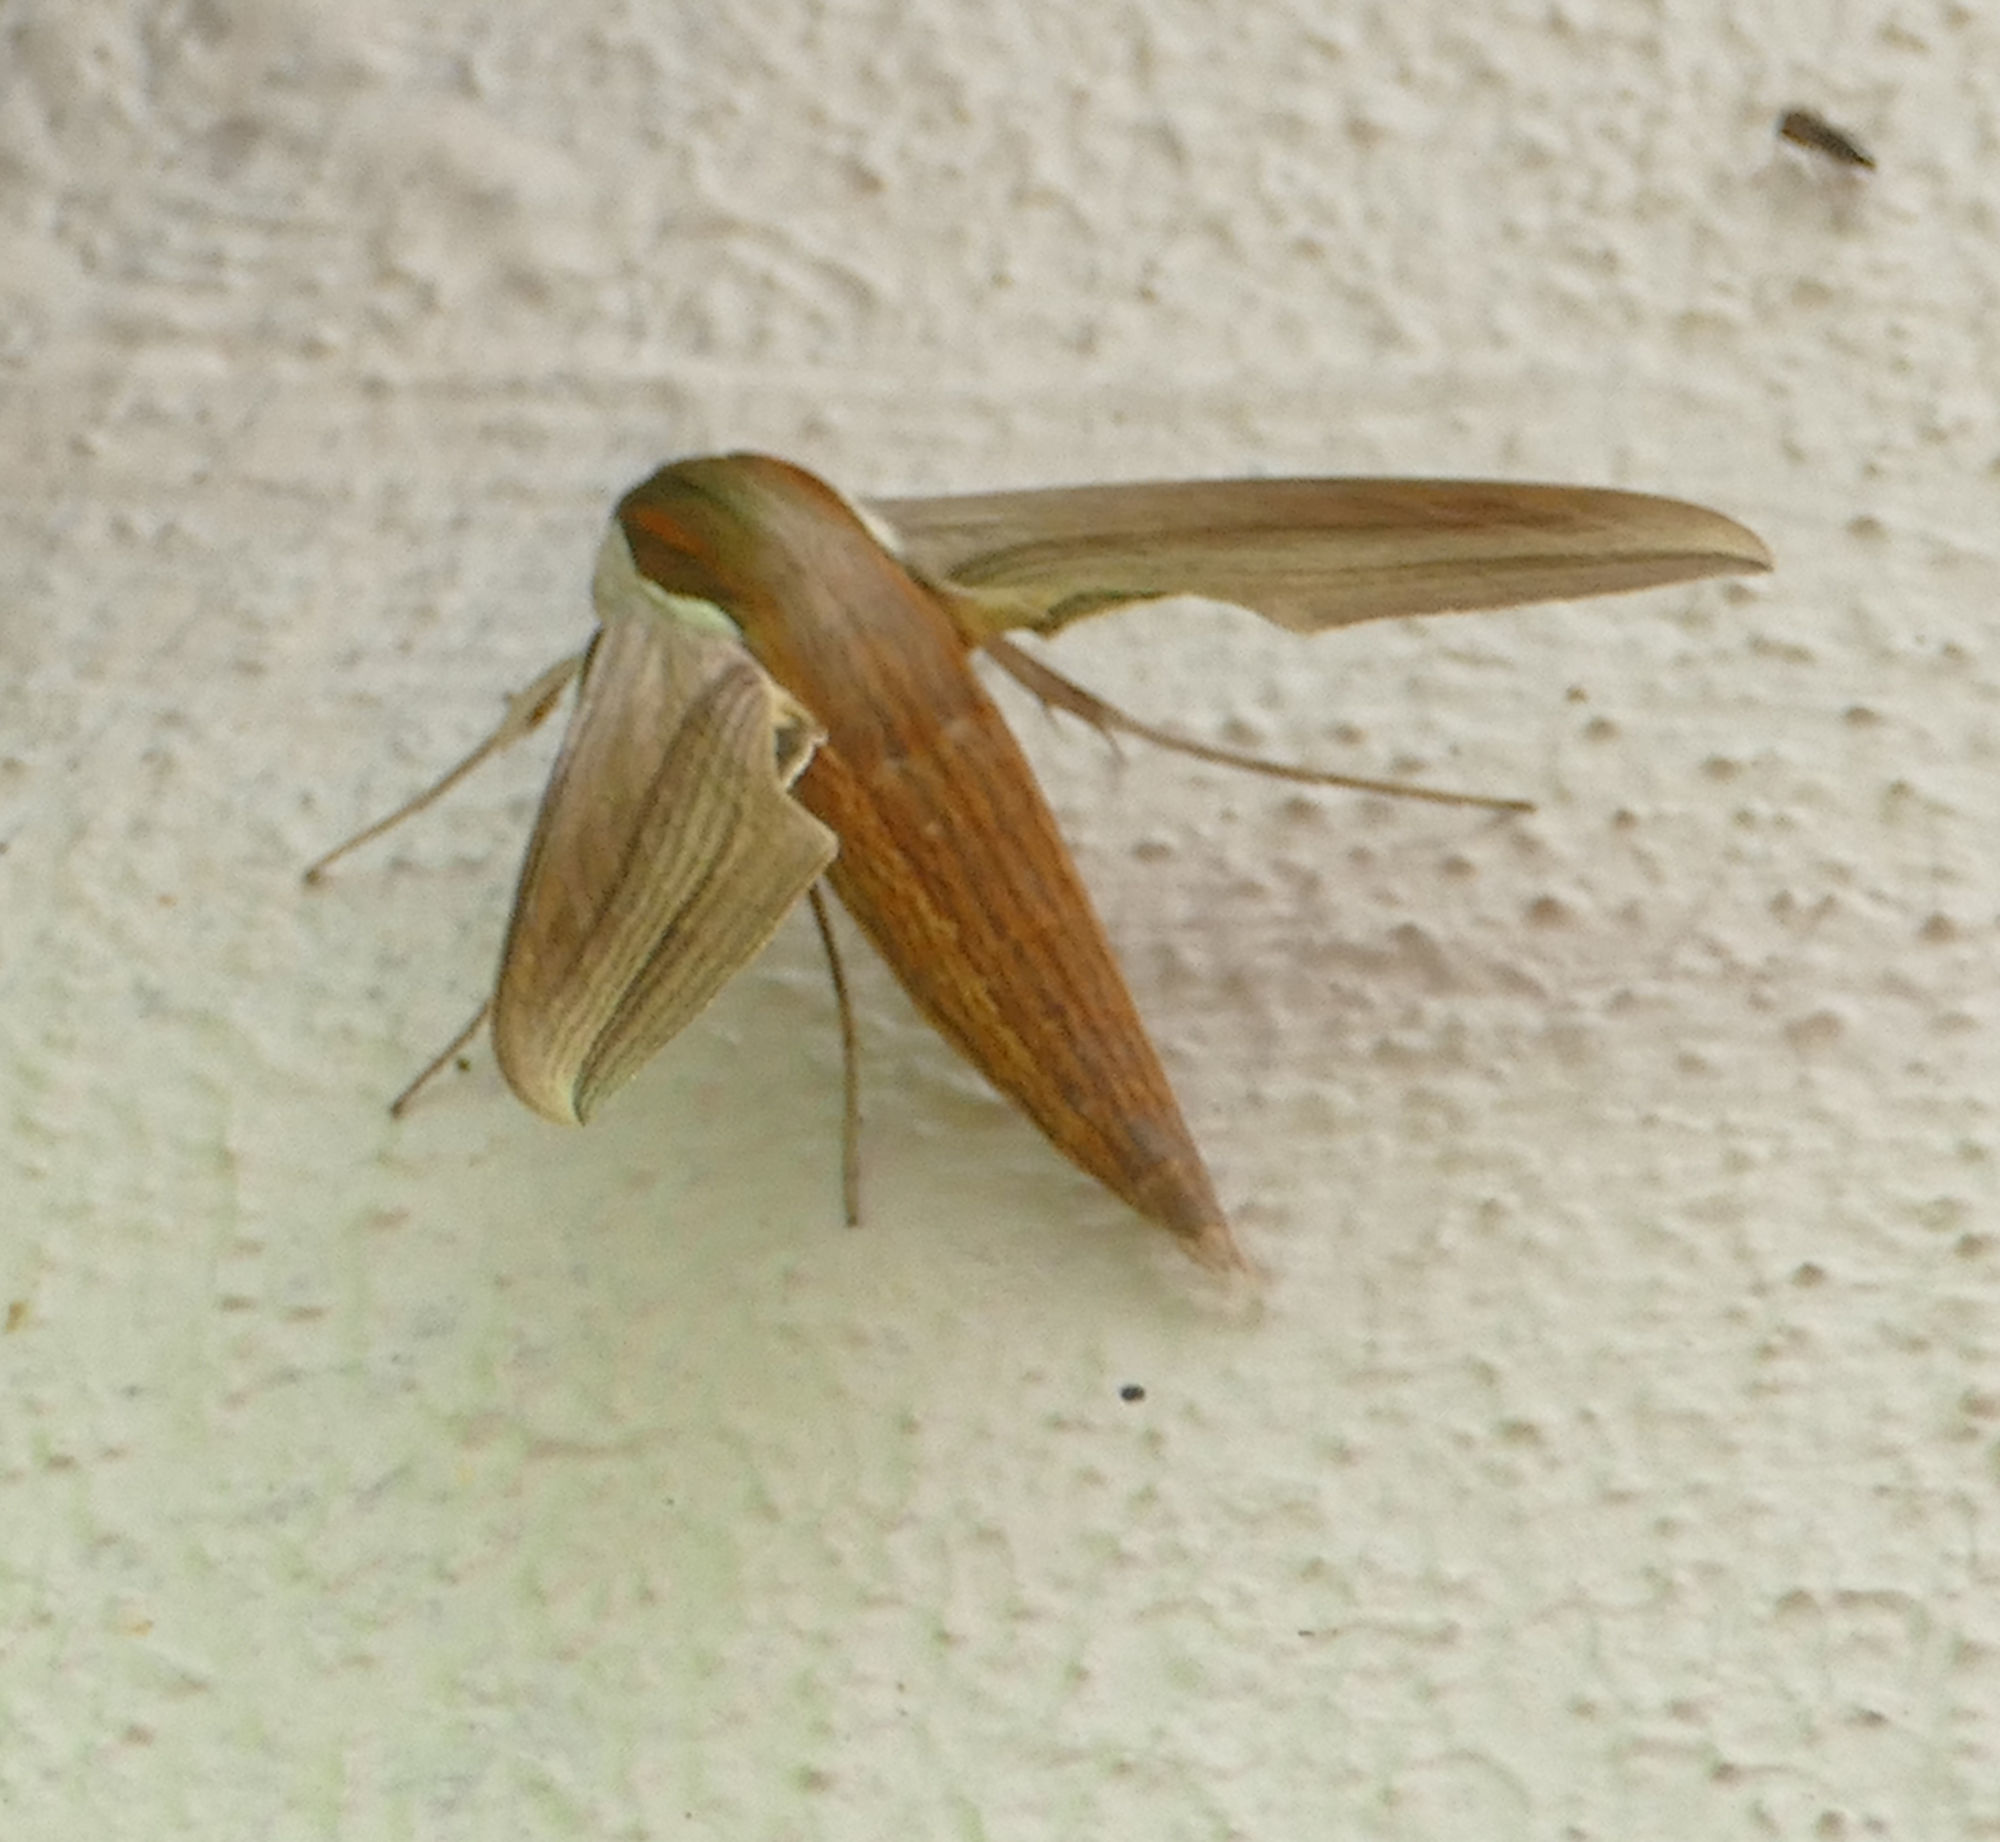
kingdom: Animalia
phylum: Arthropoda
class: Insecta
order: Lepidoptera
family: Sphingidae
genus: Xylophanes
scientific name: Xylophanes tersa
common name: Tersa sphinx
